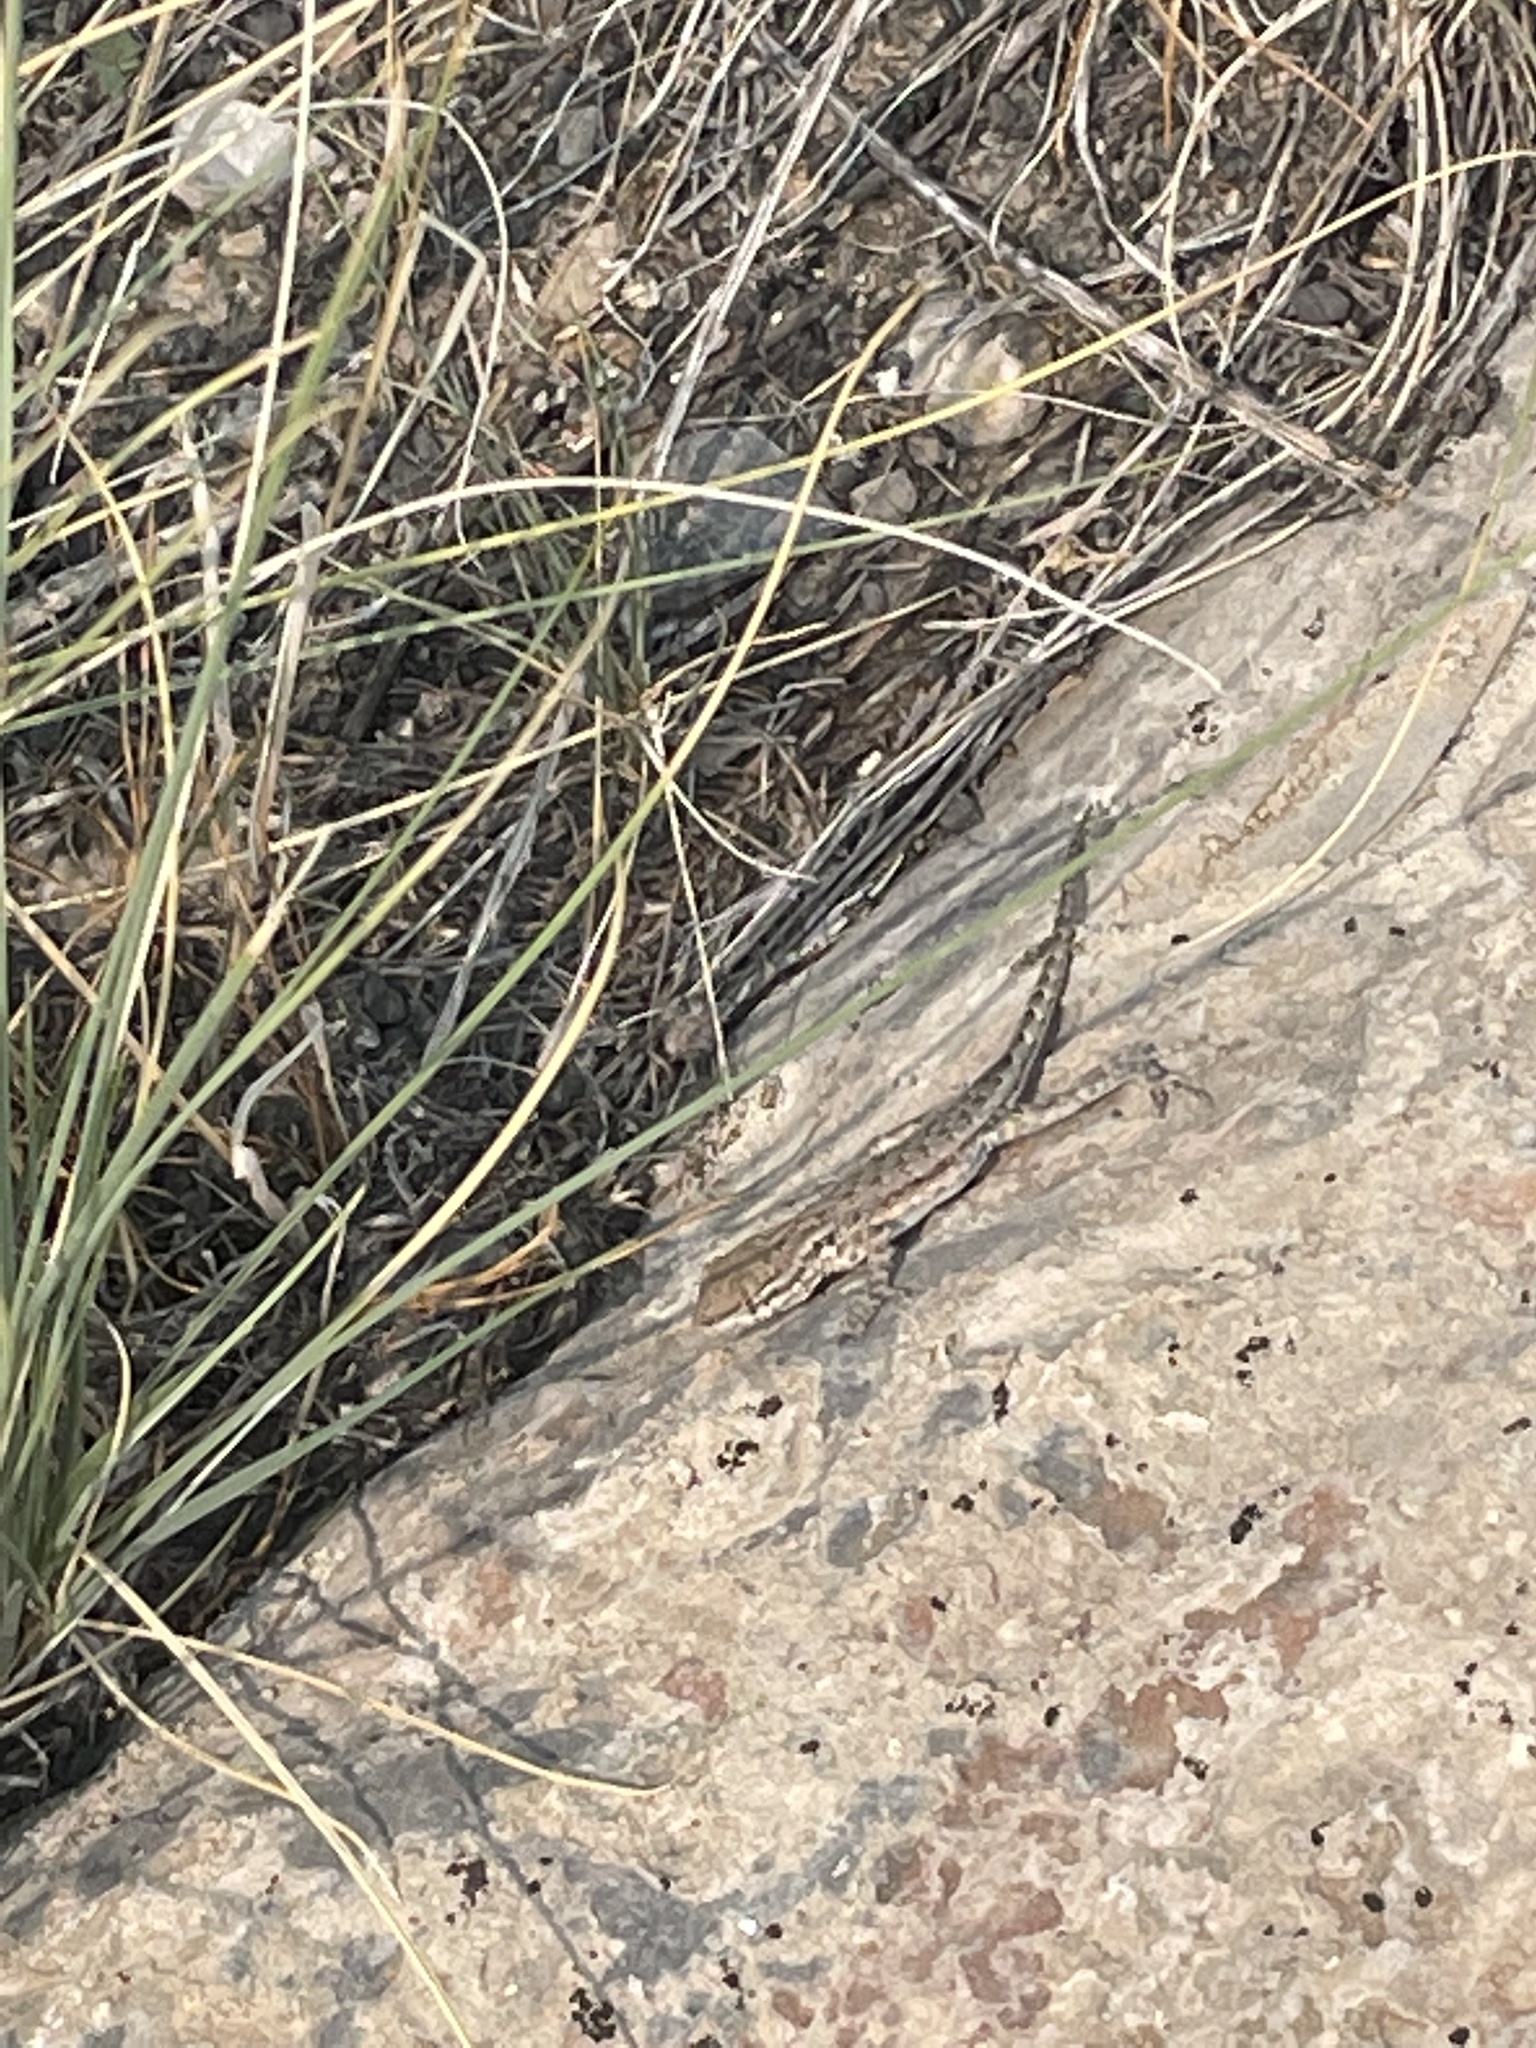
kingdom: Animalia
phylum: Chordata
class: Squamata
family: Phrynosomatidae
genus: Uta
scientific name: Uta stansburiana
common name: Side-blotched lizard
